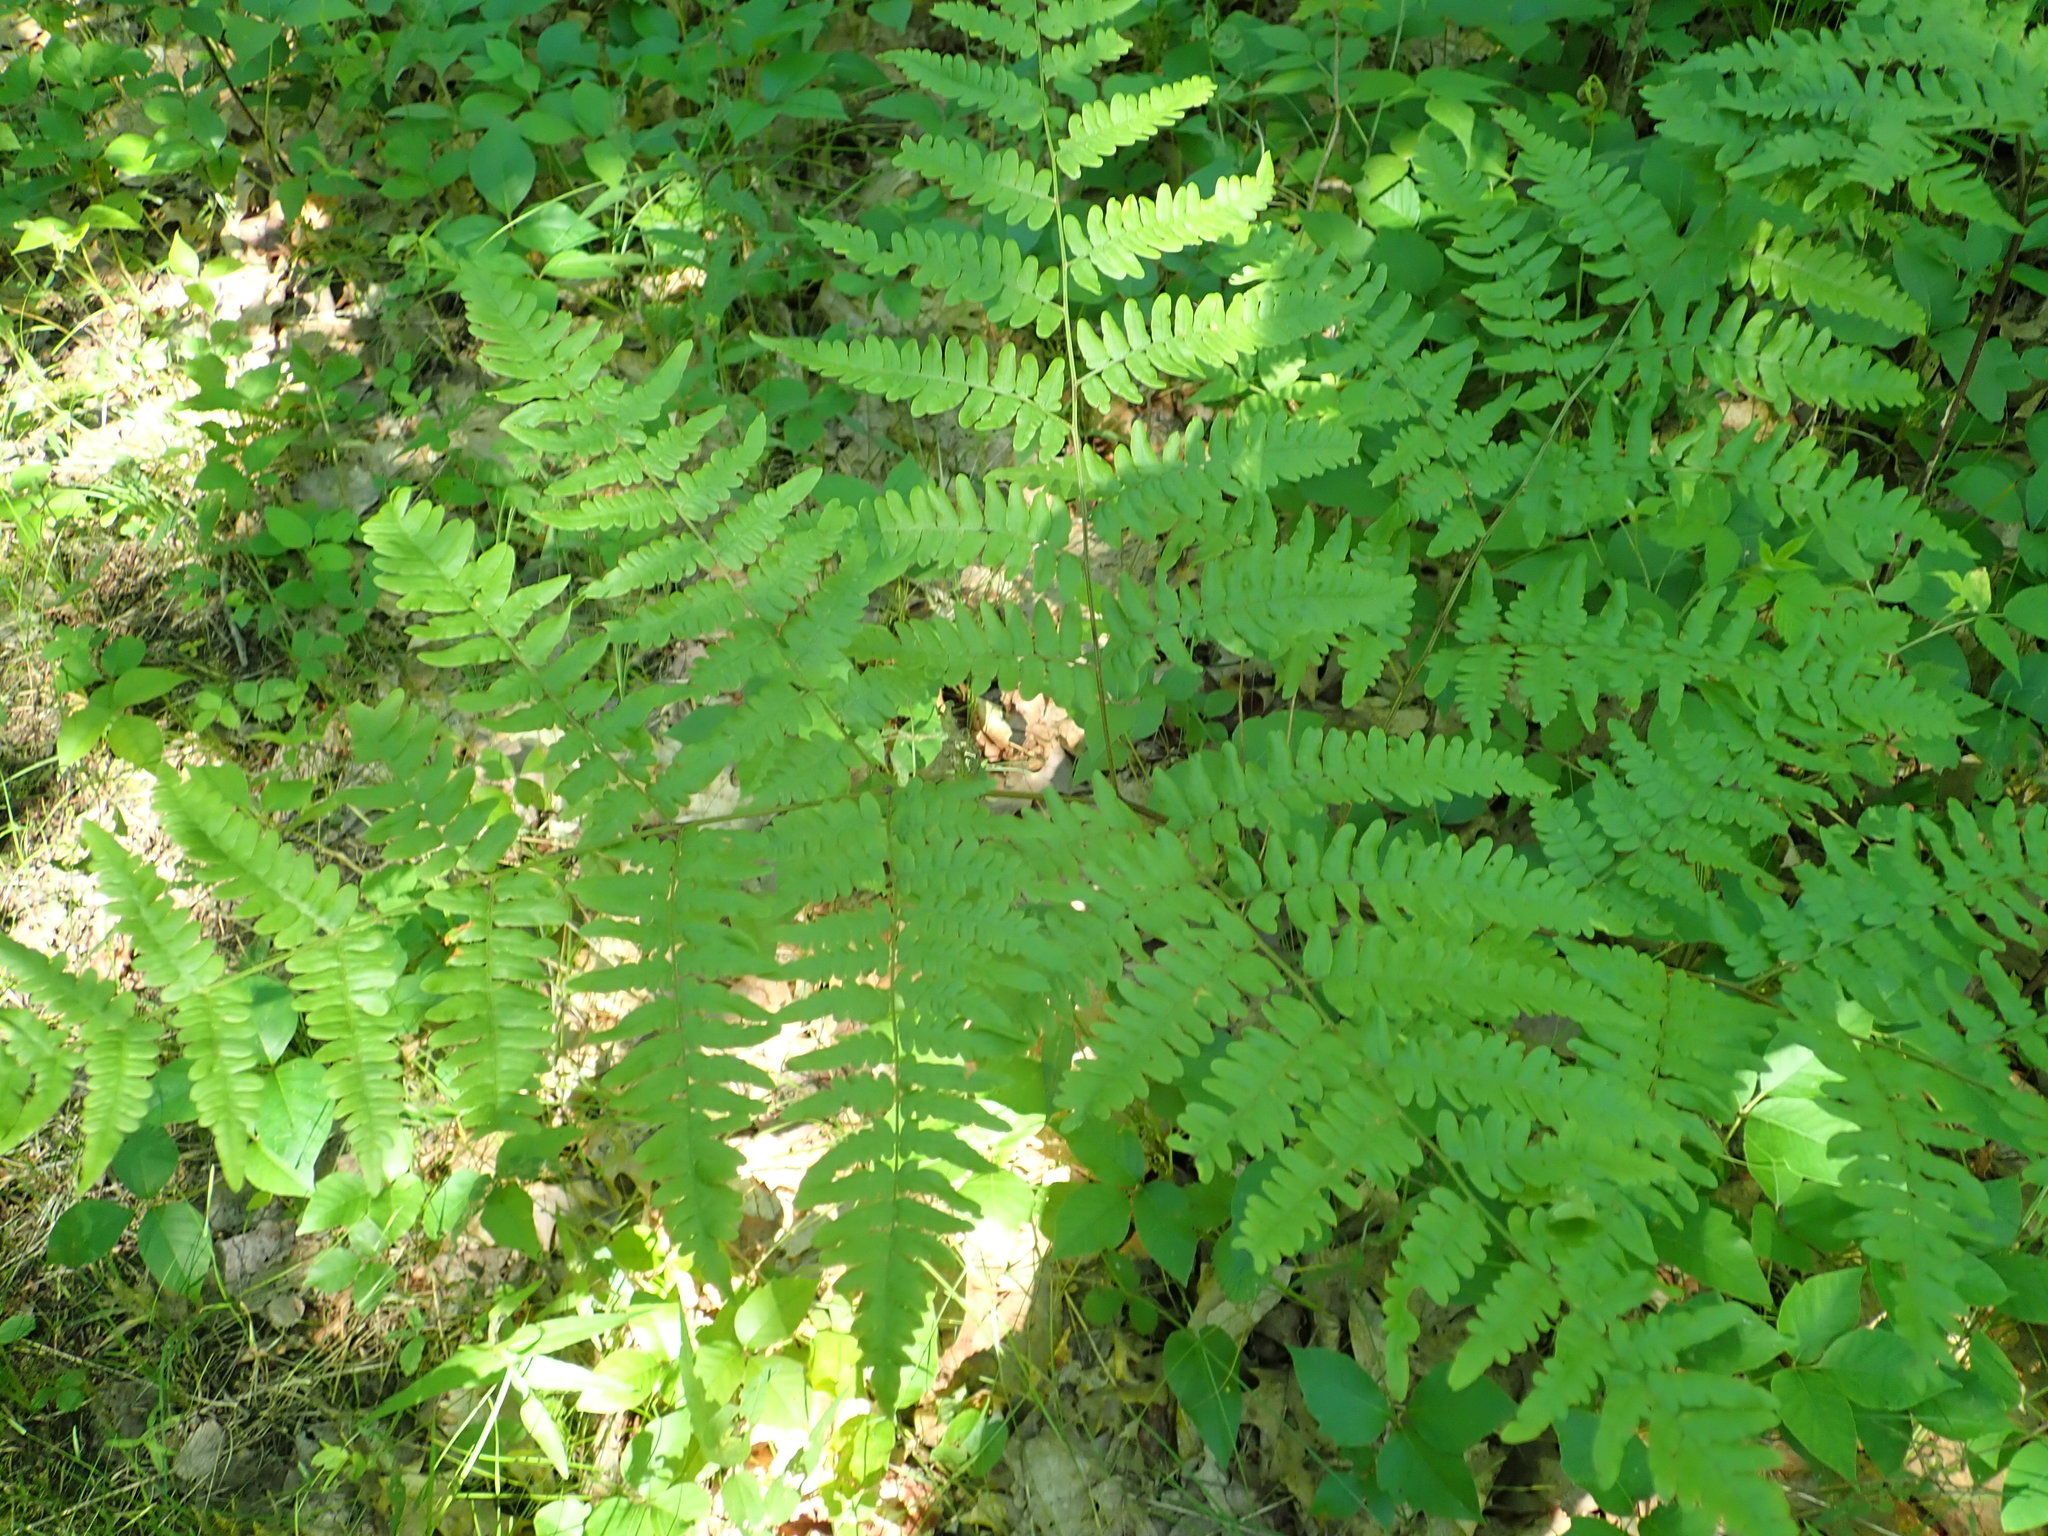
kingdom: Plantae
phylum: Tracheophyta
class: Polypodiopsida
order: Polypodiales
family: Dennstaedtiaceae
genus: Pteridium
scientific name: Pteridium aquilinum
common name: Bracken
